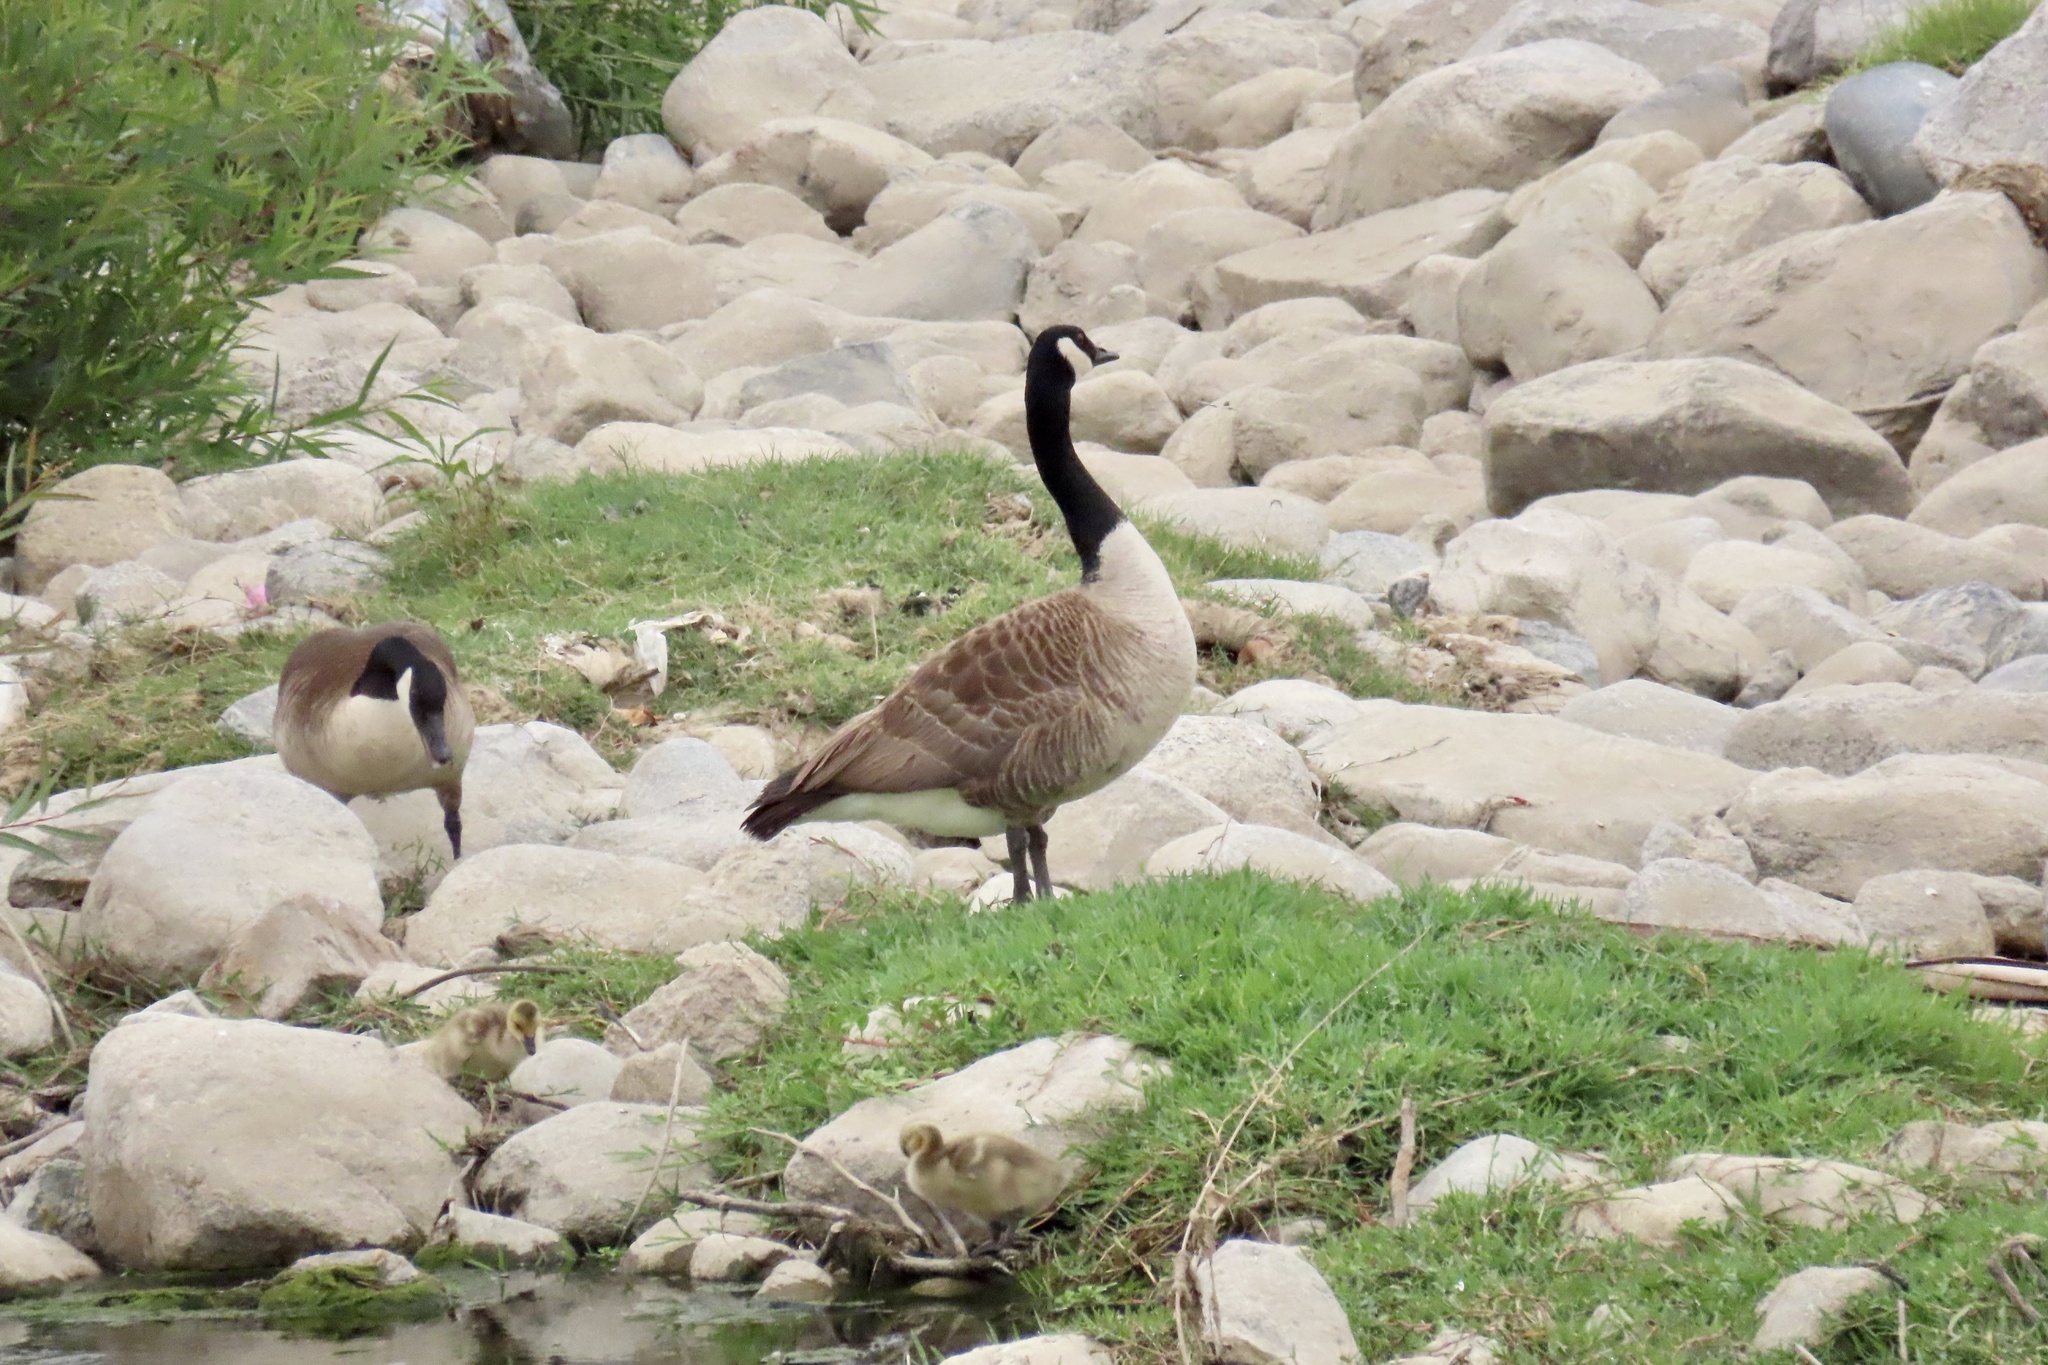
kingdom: Animalia
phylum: Chordata
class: Aves
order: Anseriformes
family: Anatidae
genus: Branta
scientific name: Branta canadensis
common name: Canada goose
